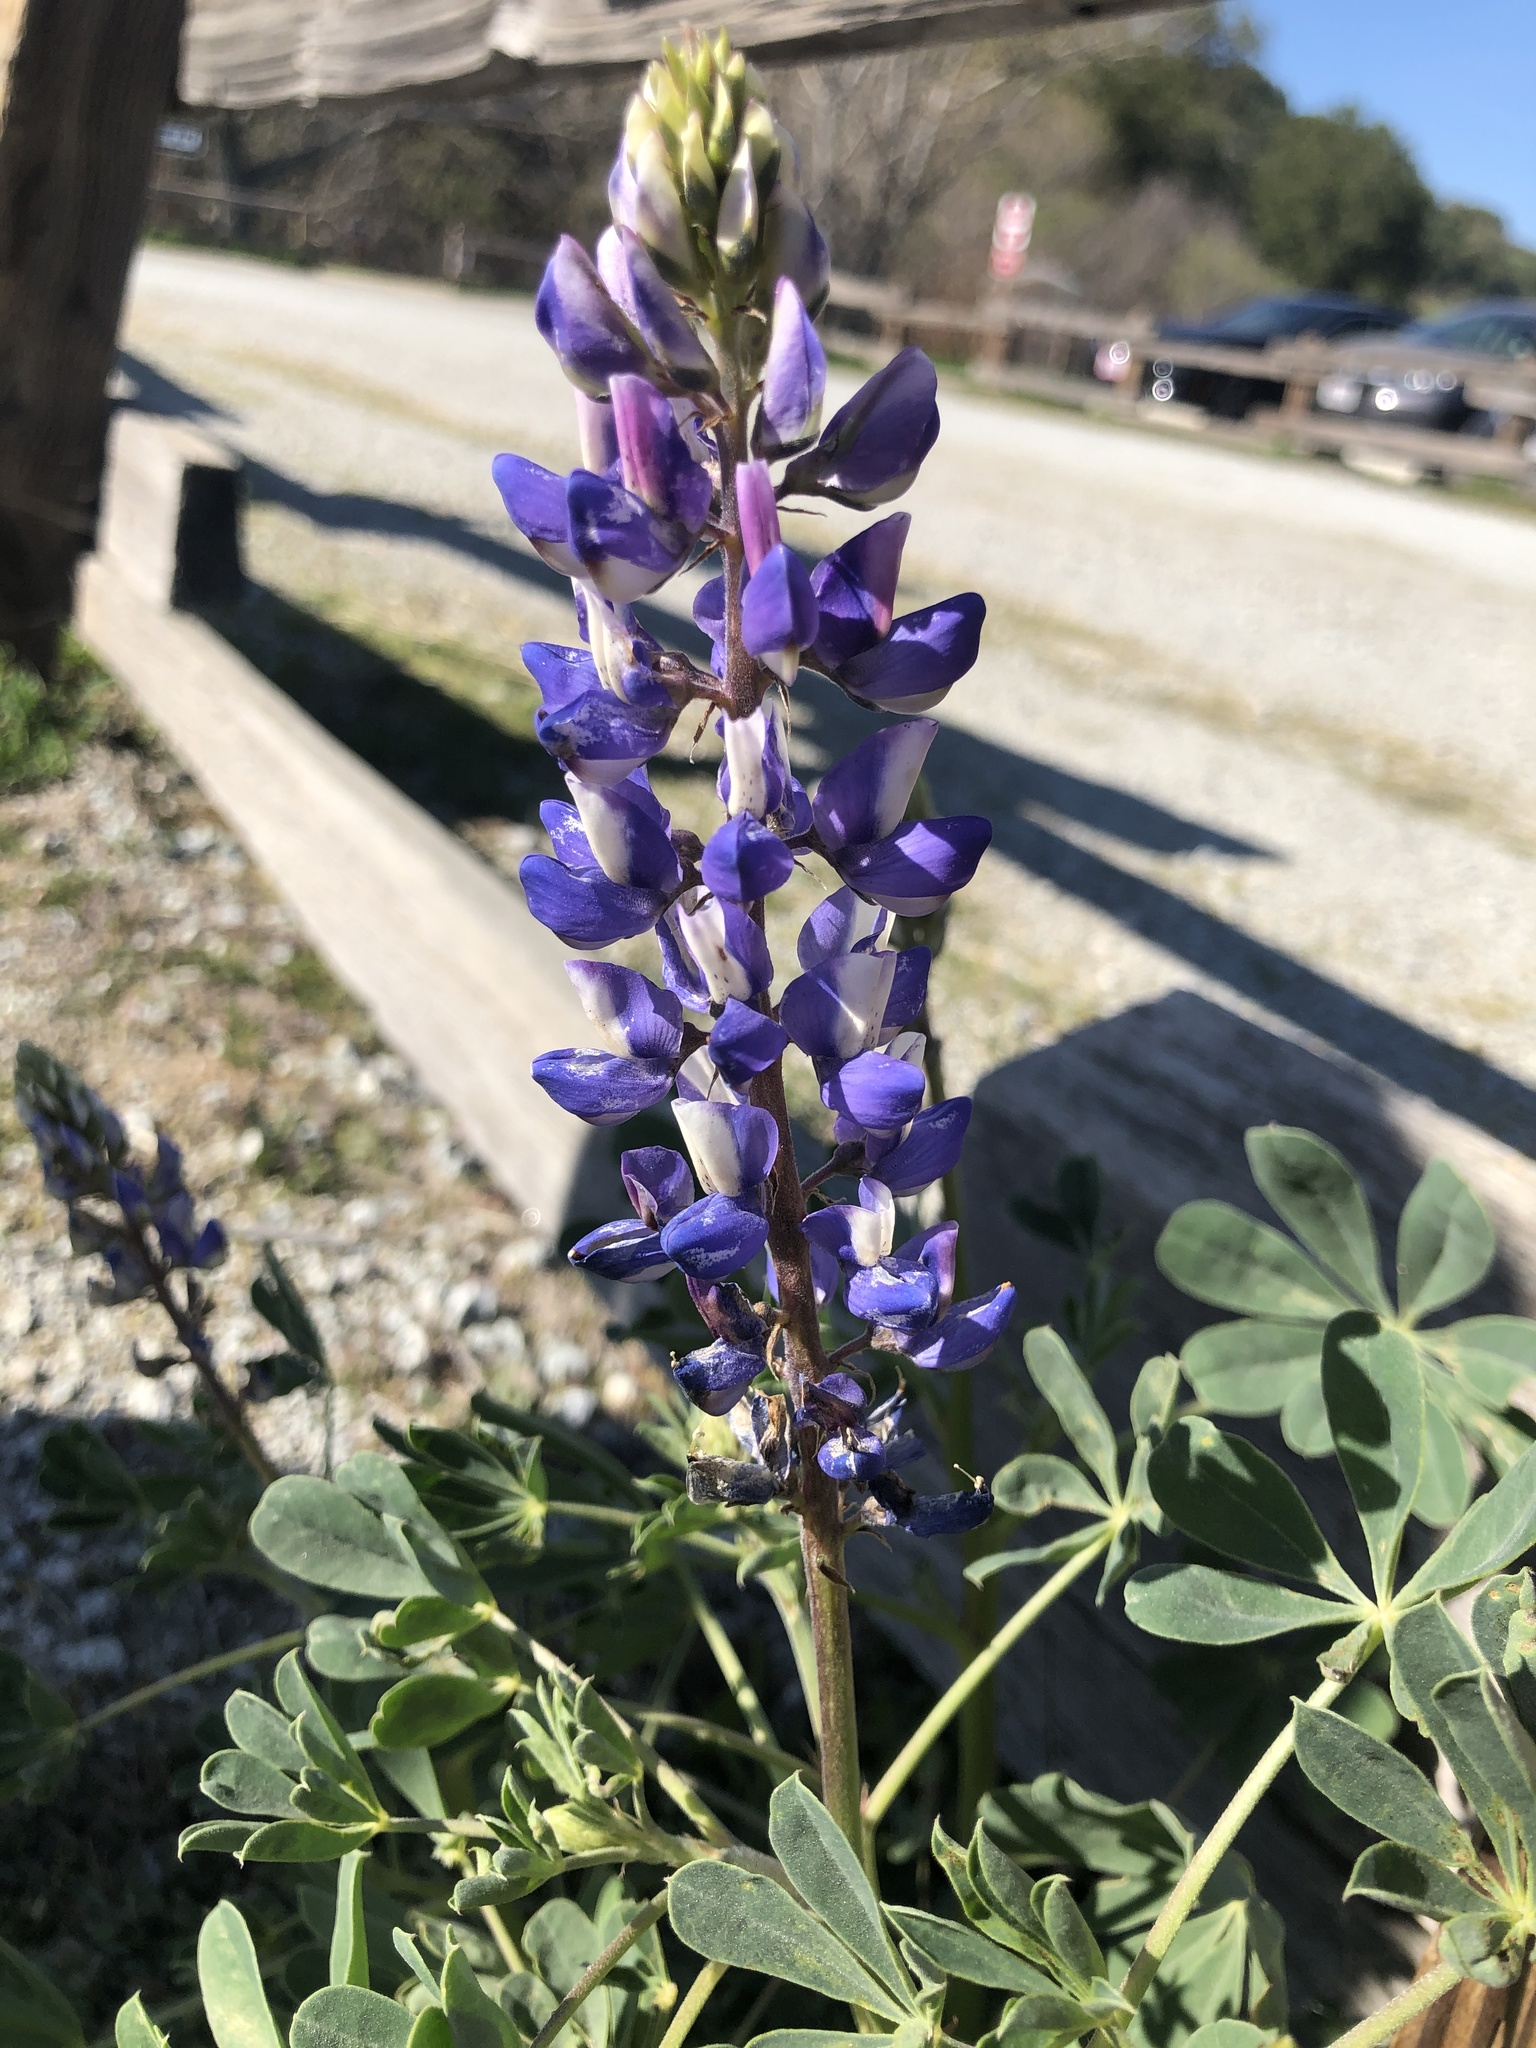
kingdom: Plantae
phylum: Tracheophyta
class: Magnoliopsida
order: Fabales
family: Fabaceae
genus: Lupinus
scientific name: Lupinus succulentus
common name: Arroyo lupine
